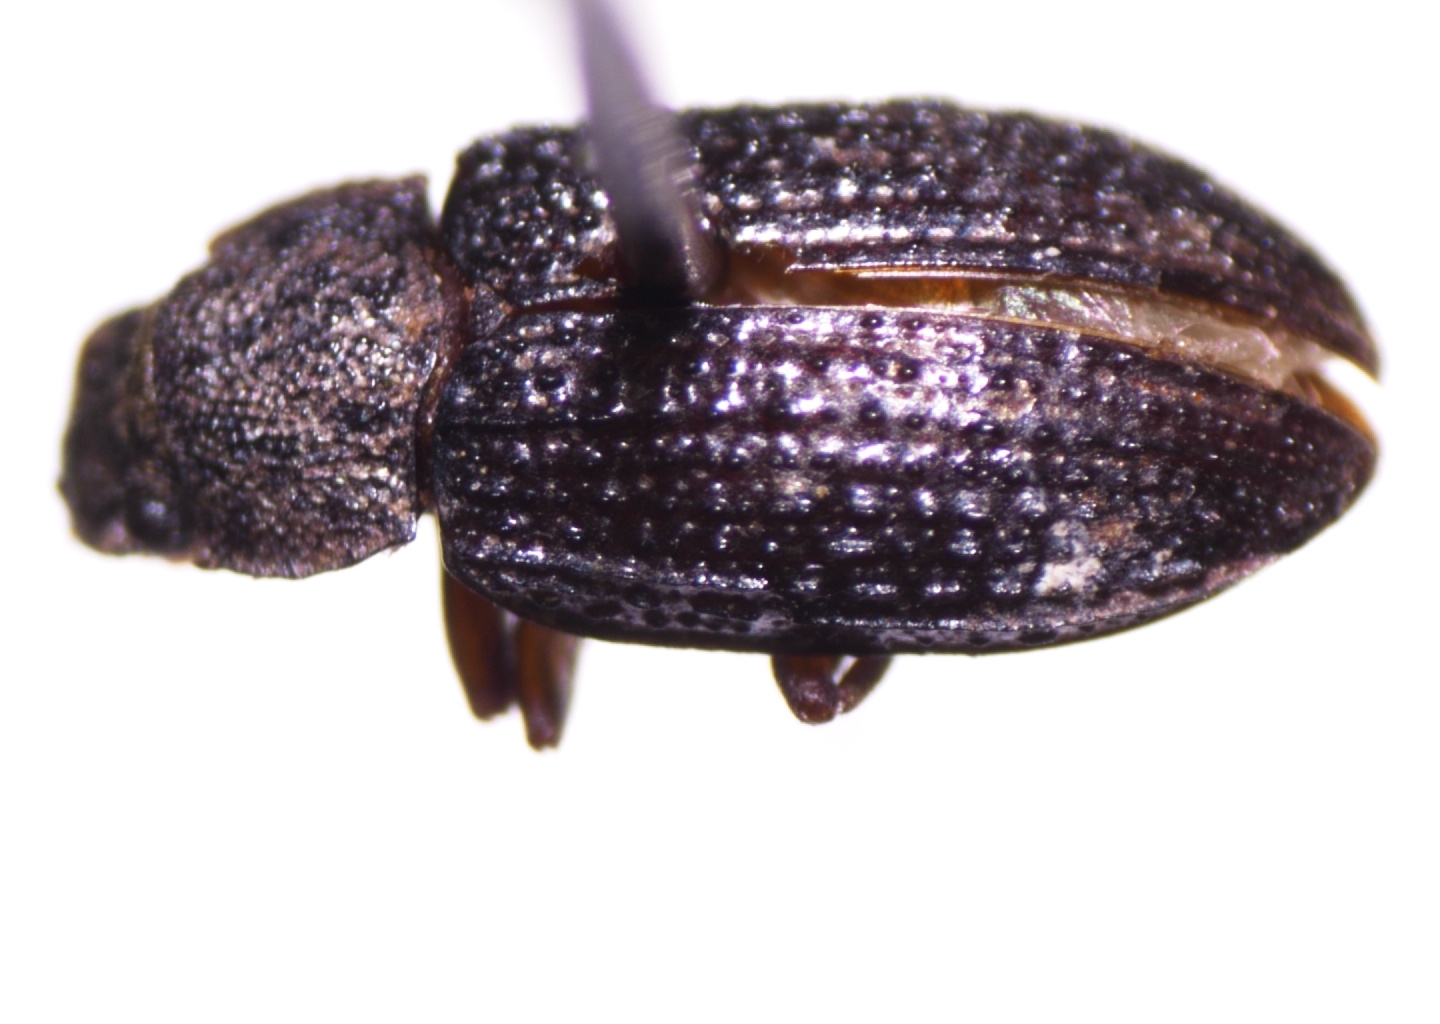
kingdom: Animalia
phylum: Arthropoda
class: Insecta
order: Coleoptera
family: Tenebrionidae
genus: Bradymerus
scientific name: Bradymerus tahitiensis
